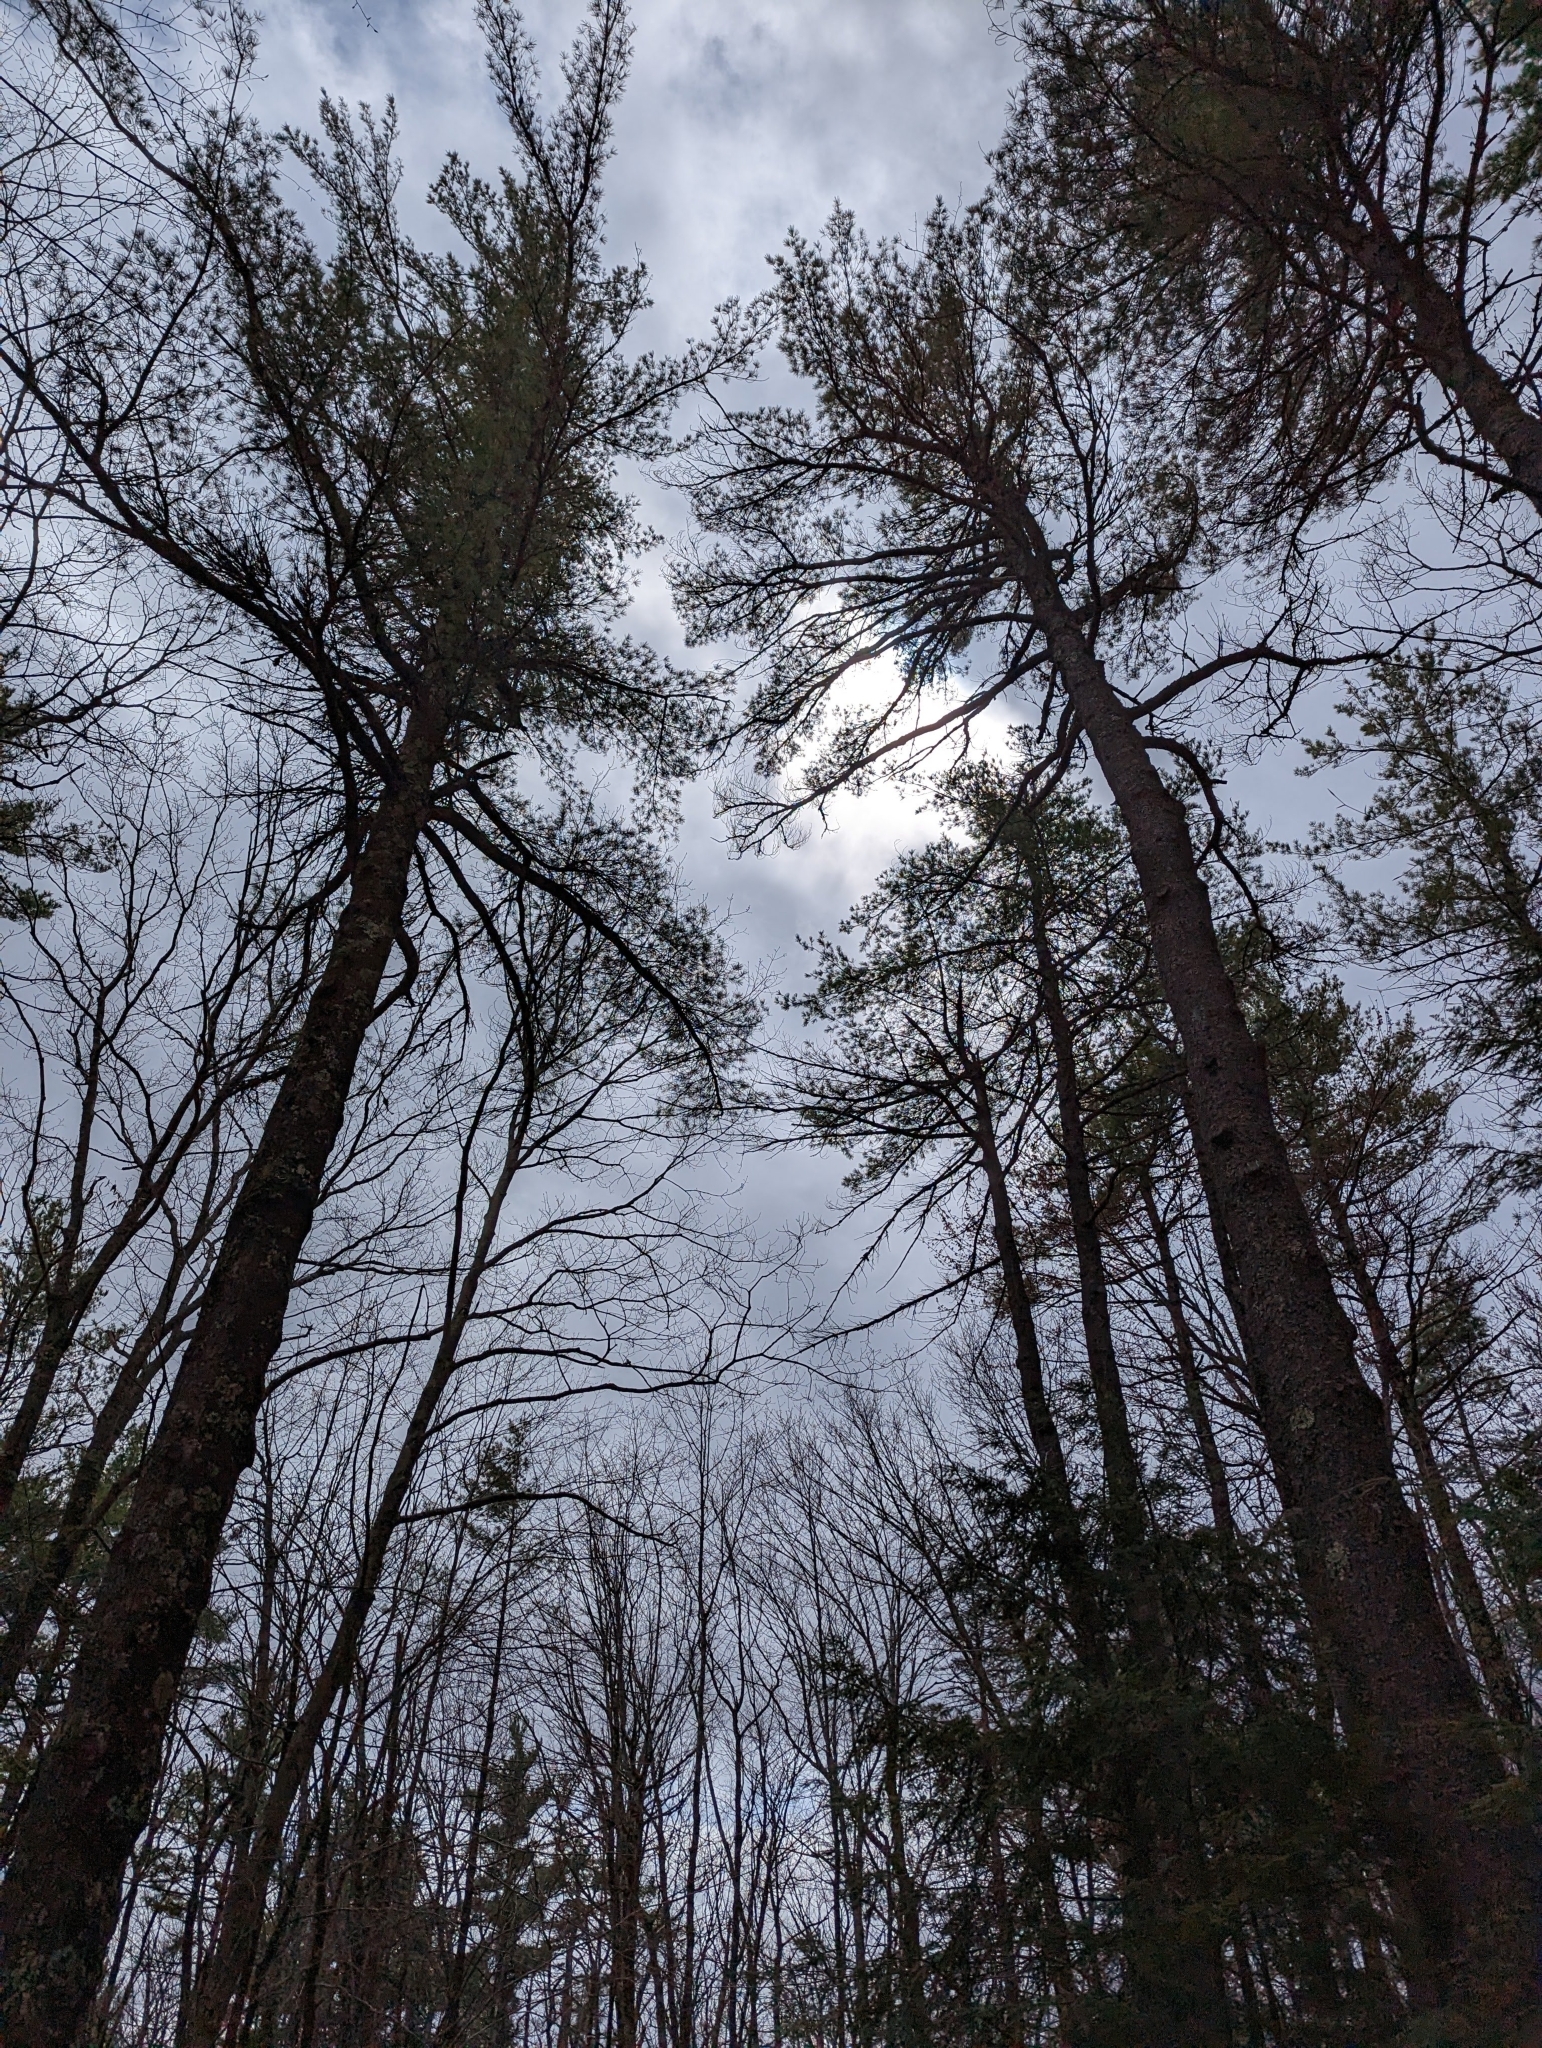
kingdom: Plantae
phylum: Tracheophyta
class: Pinopsida
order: Pinales
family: Pinaceae
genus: Pinus
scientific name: Pinus strobus
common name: Weymouth pine
